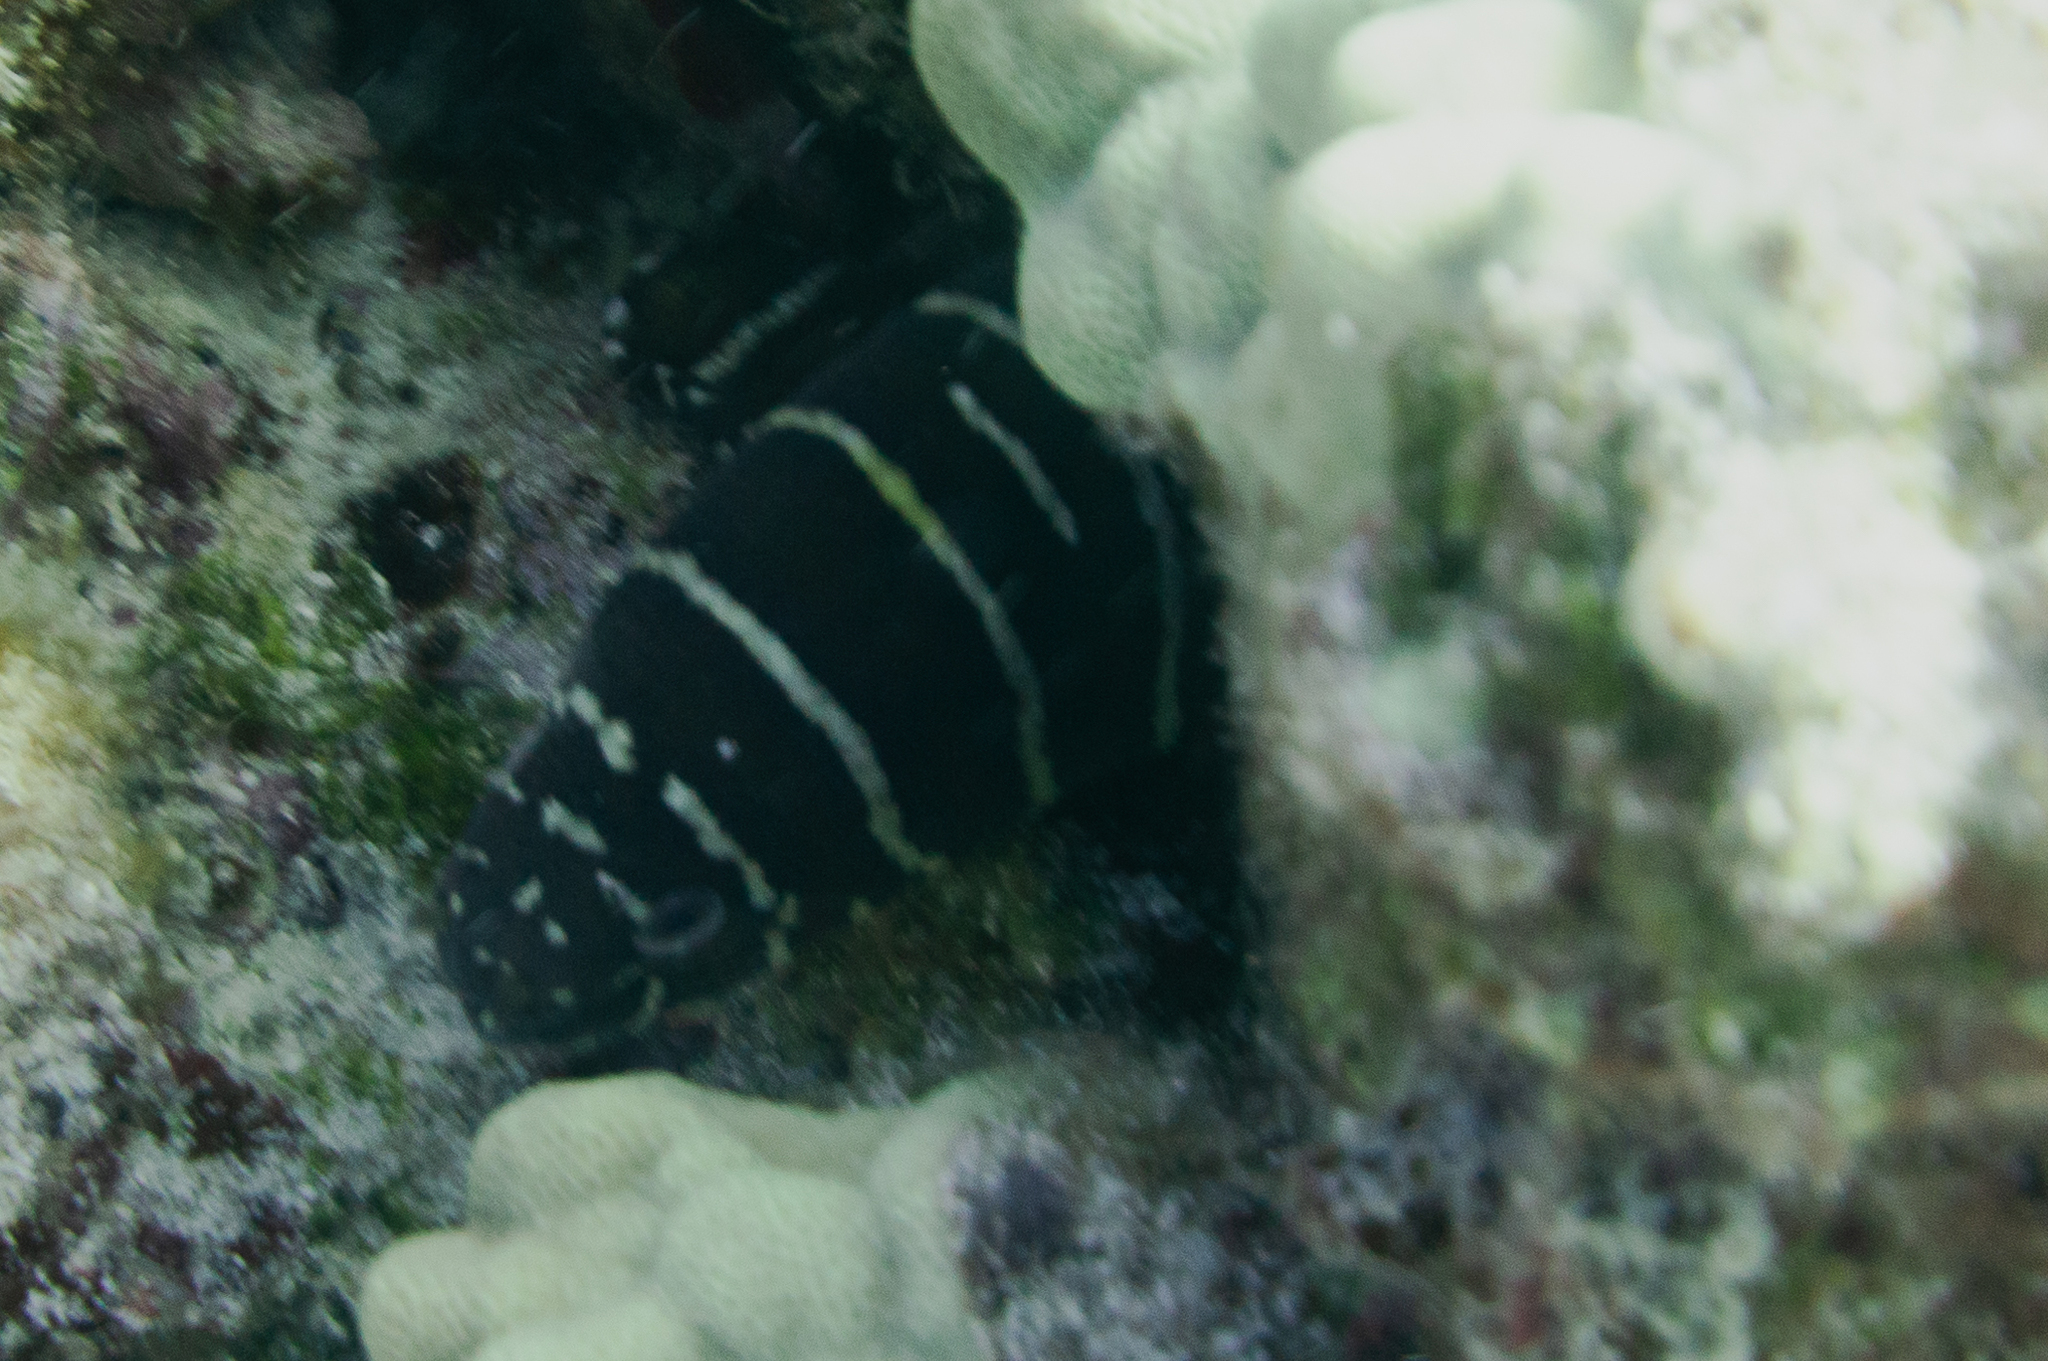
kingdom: Animalia
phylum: Chordata
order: Anguilliformes
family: Muraenidae
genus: Gymnomuraena
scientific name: Gymnomuraena zebra
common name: Zebra moray
